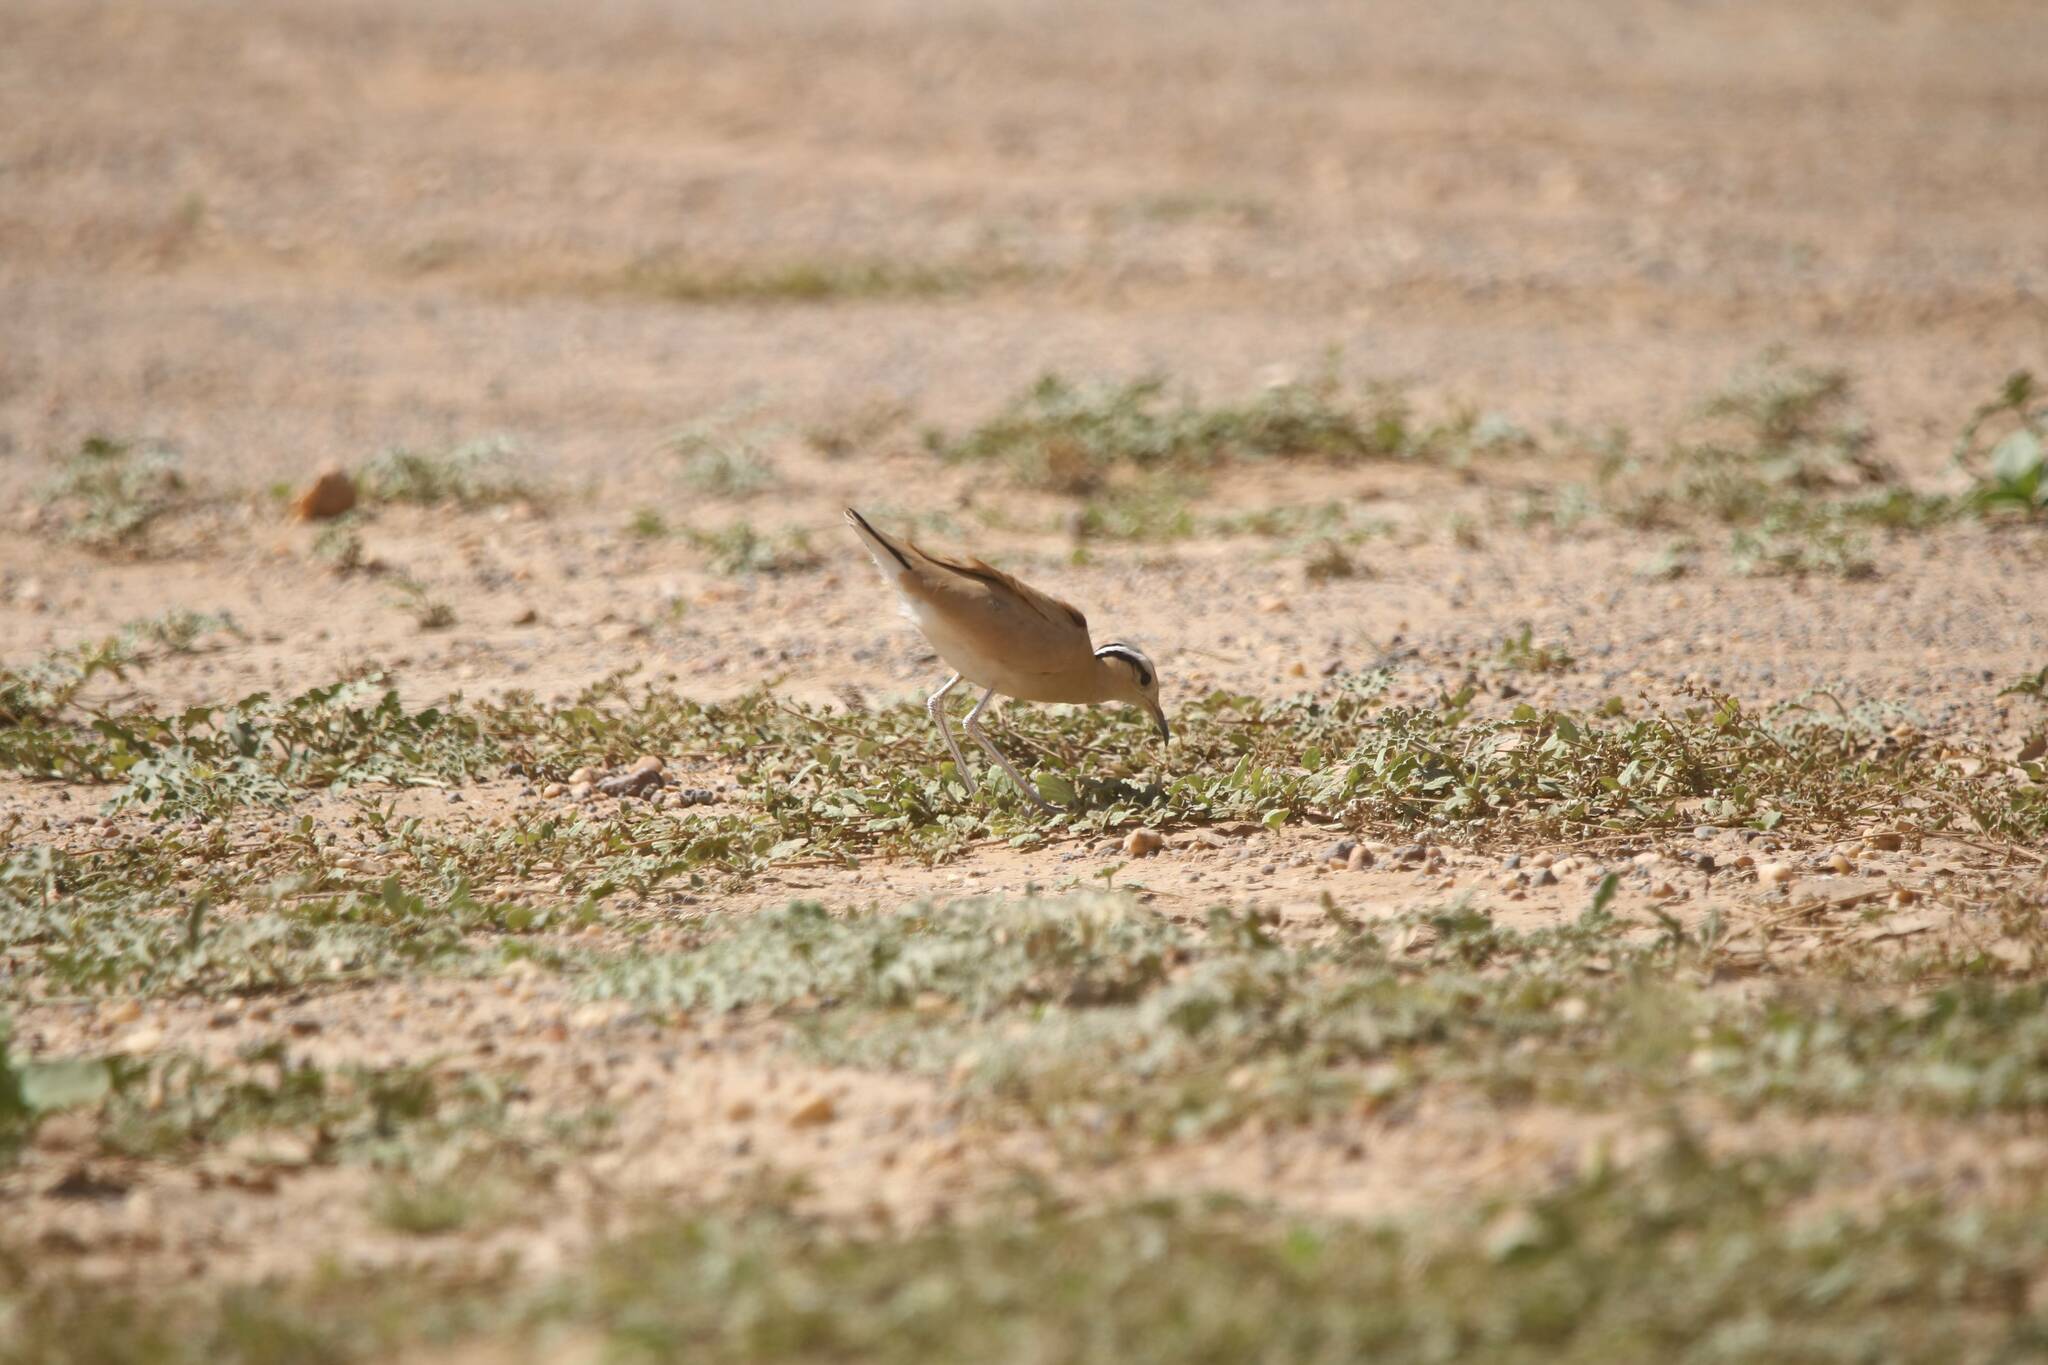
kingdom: Animalia
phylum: Chordata
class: Aves
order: Charadriiformes
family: Glareolidae
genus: Cursorius
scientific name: Cursorius cursor
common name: Cream-colored courser
